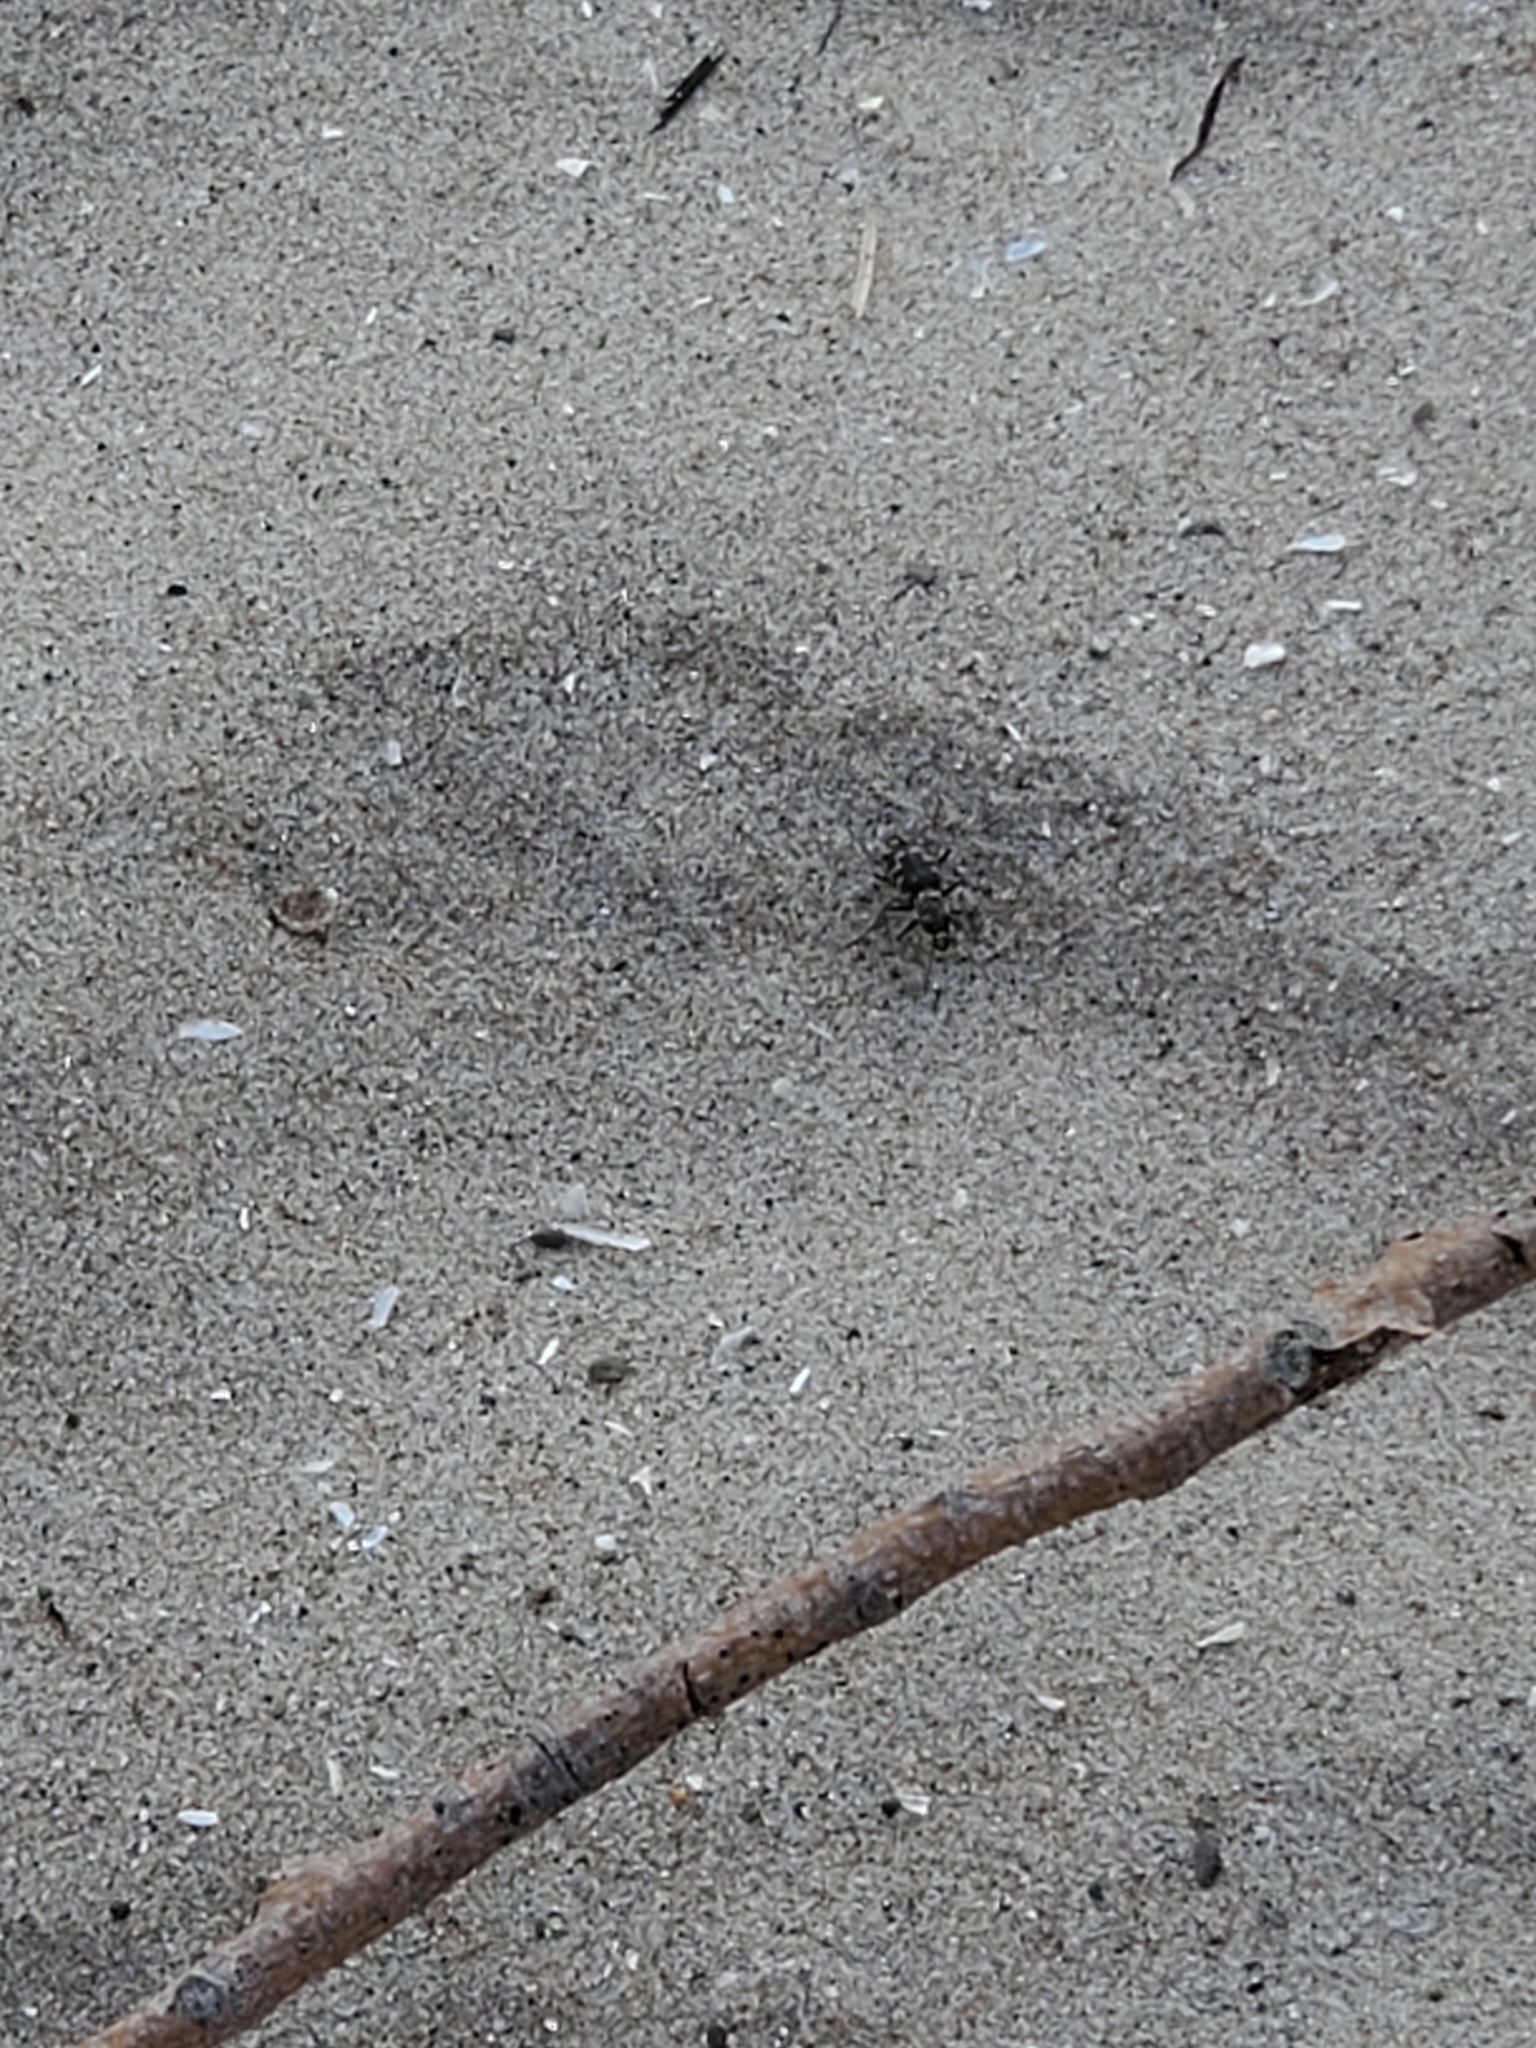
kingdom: Animalia
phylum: Arthropoda
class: Insecta
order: Coleoptera
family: Carabidae
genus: Cicindela
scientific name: Cicindela repanda
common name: Bronzed tiger beetle
